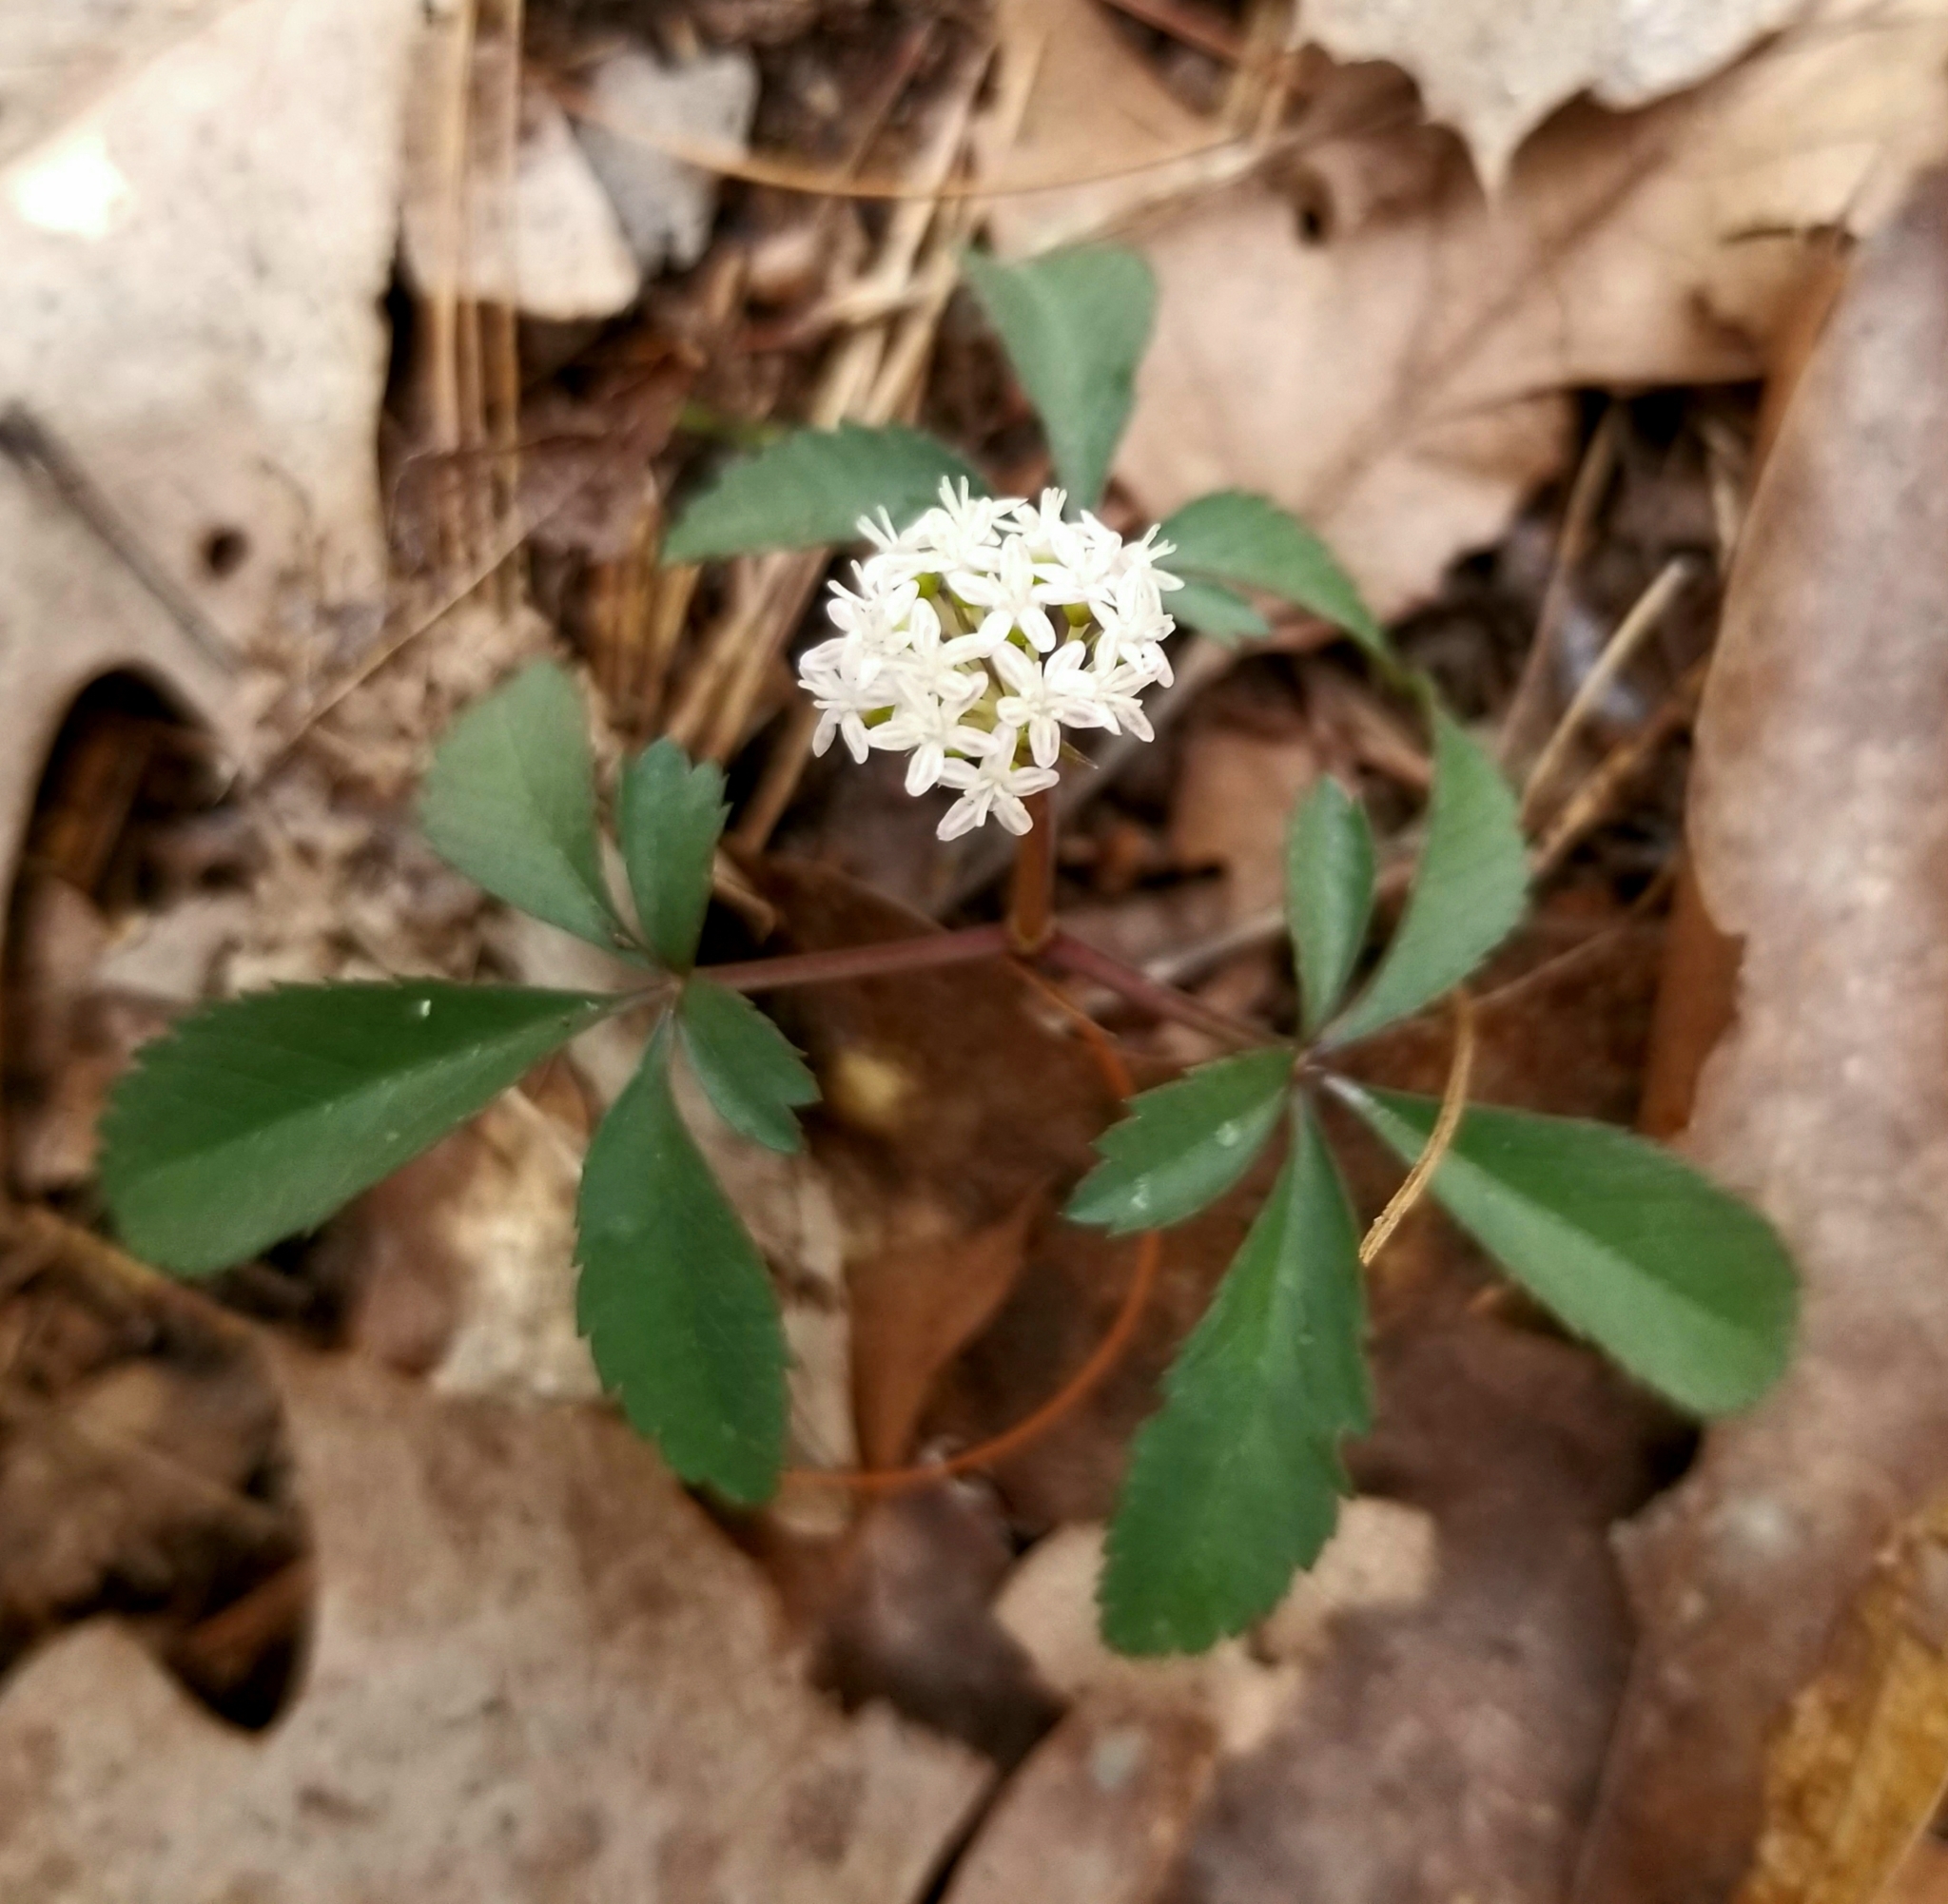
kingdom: Plantae
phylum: Tracheophyta
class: Magnoliopsida
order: Apiales
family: Araliaceae
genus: Panax
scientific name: Panax trifolius
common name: Dwarf ginseng
